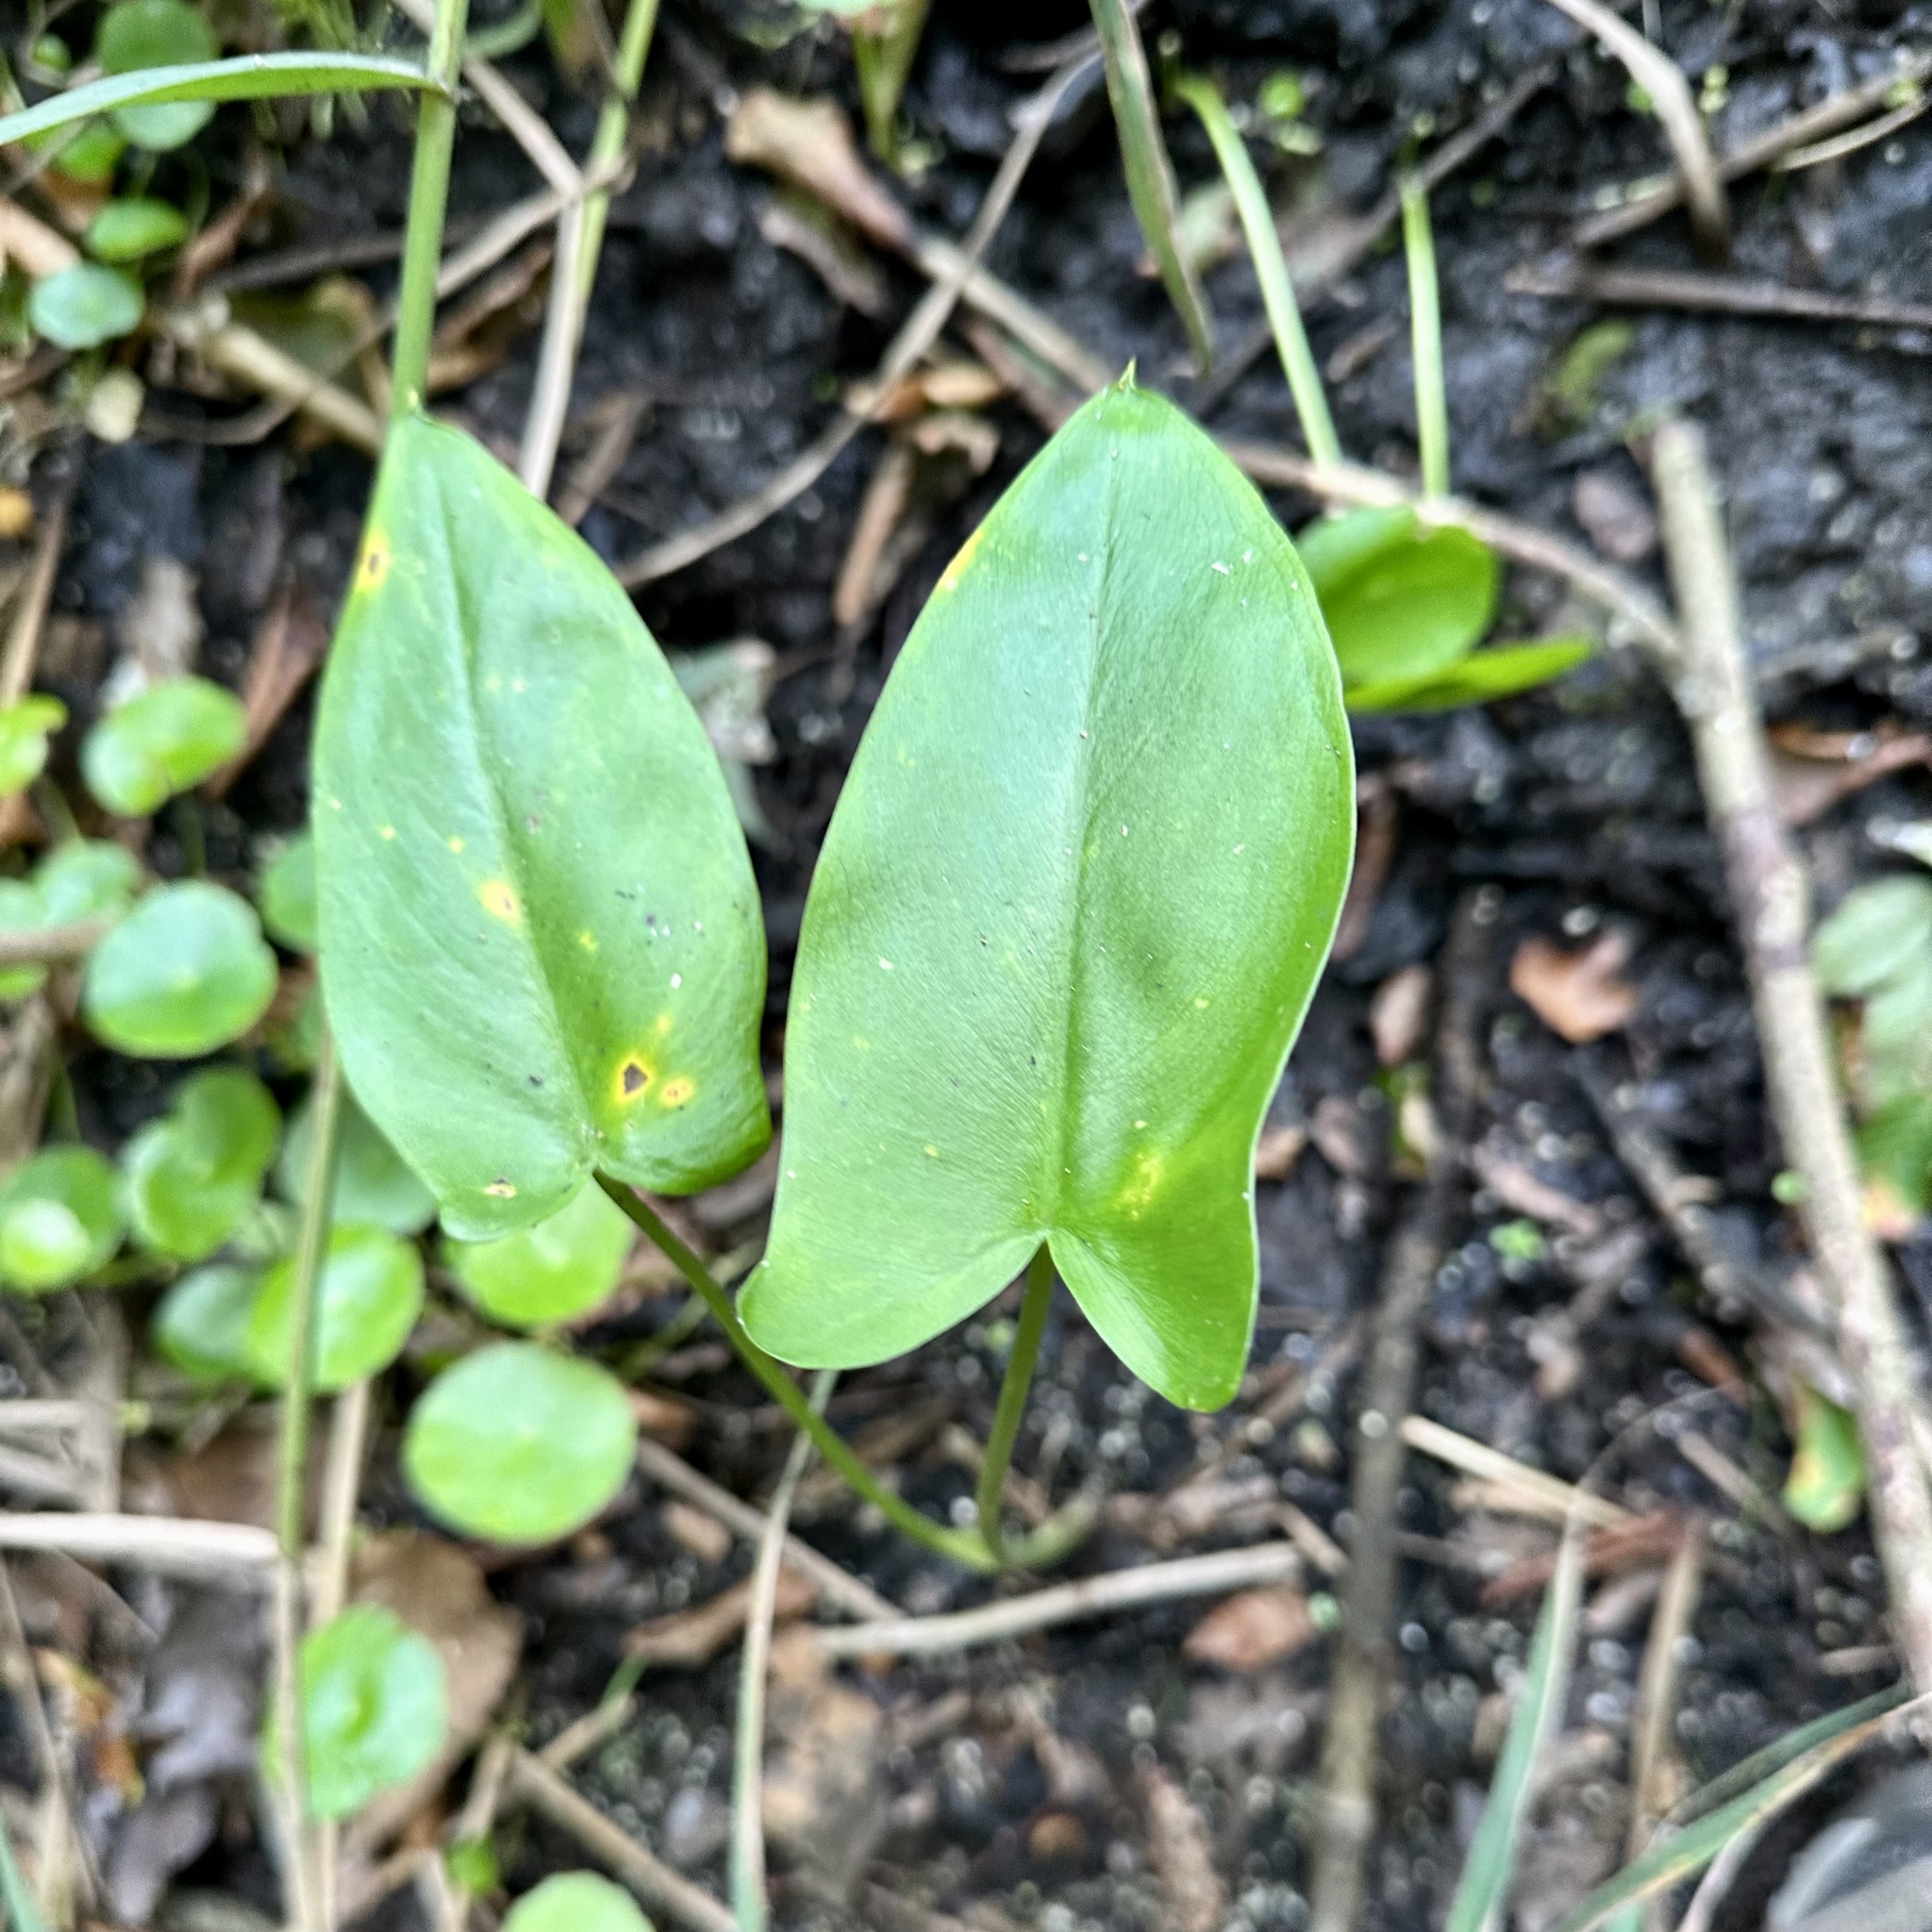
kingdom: Plantae
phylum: Tracheophyta
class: Liliopsida
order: Alismatales
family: Araceae
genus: Peltandra
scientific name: Peltandra virginica
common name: Arrow arum
